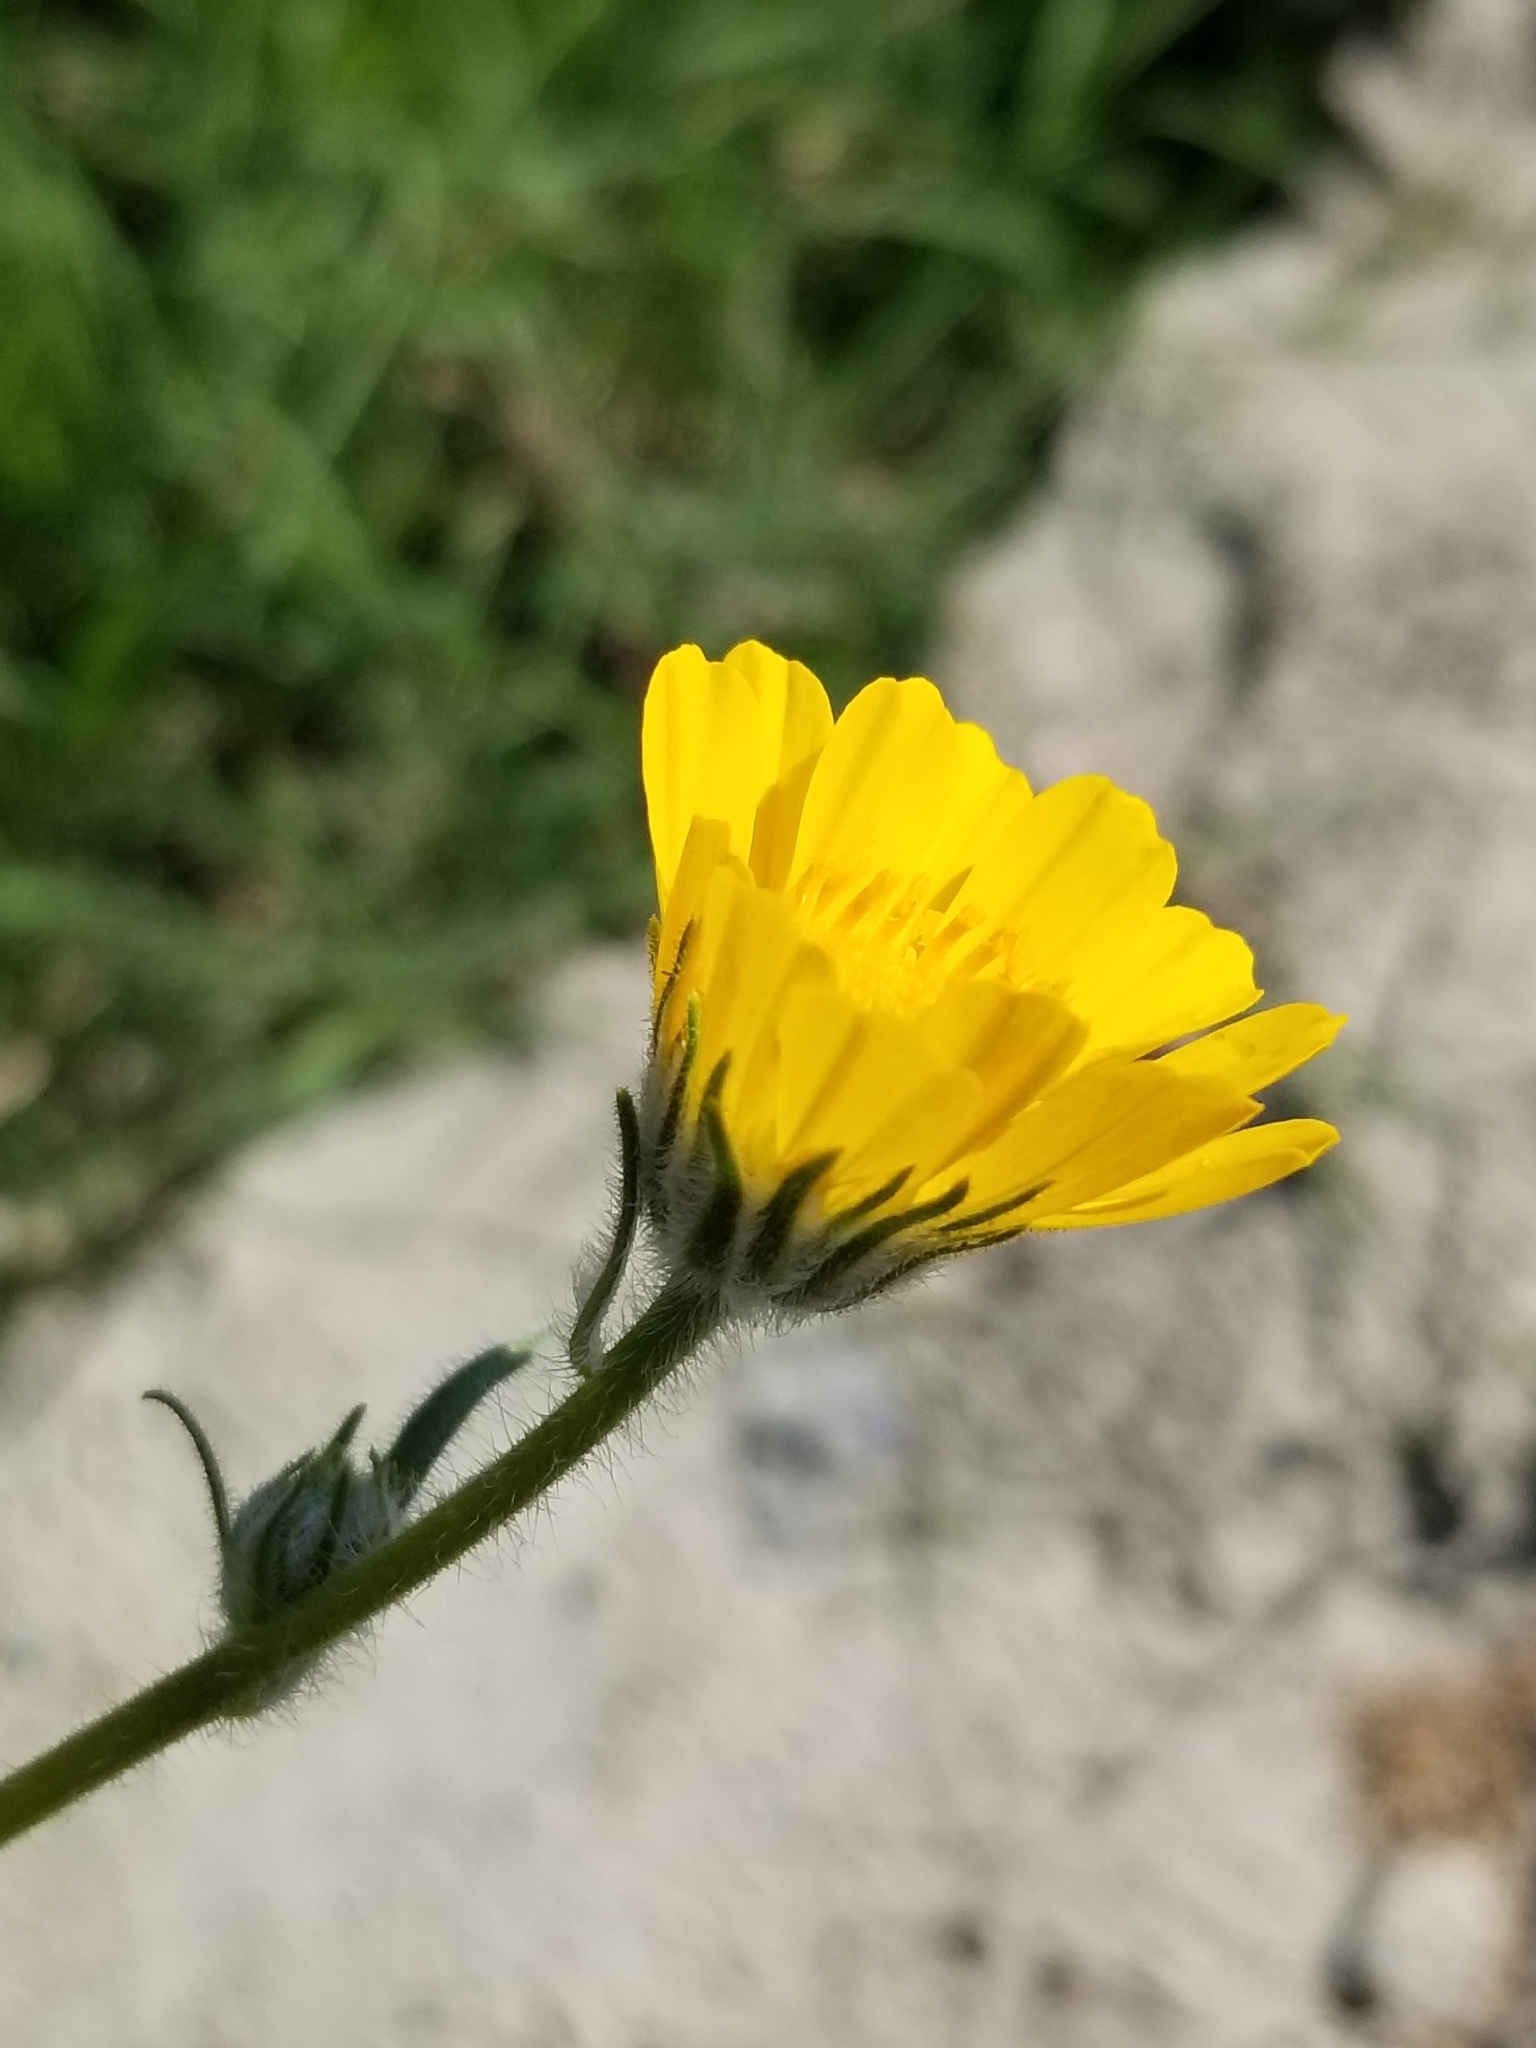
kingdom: Plantae
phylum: Tracheophyta
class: Magnoliopsida
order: Asterales
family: Asteraceae
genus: Geraea
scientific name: Geraea canescens
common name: Desert-gold
